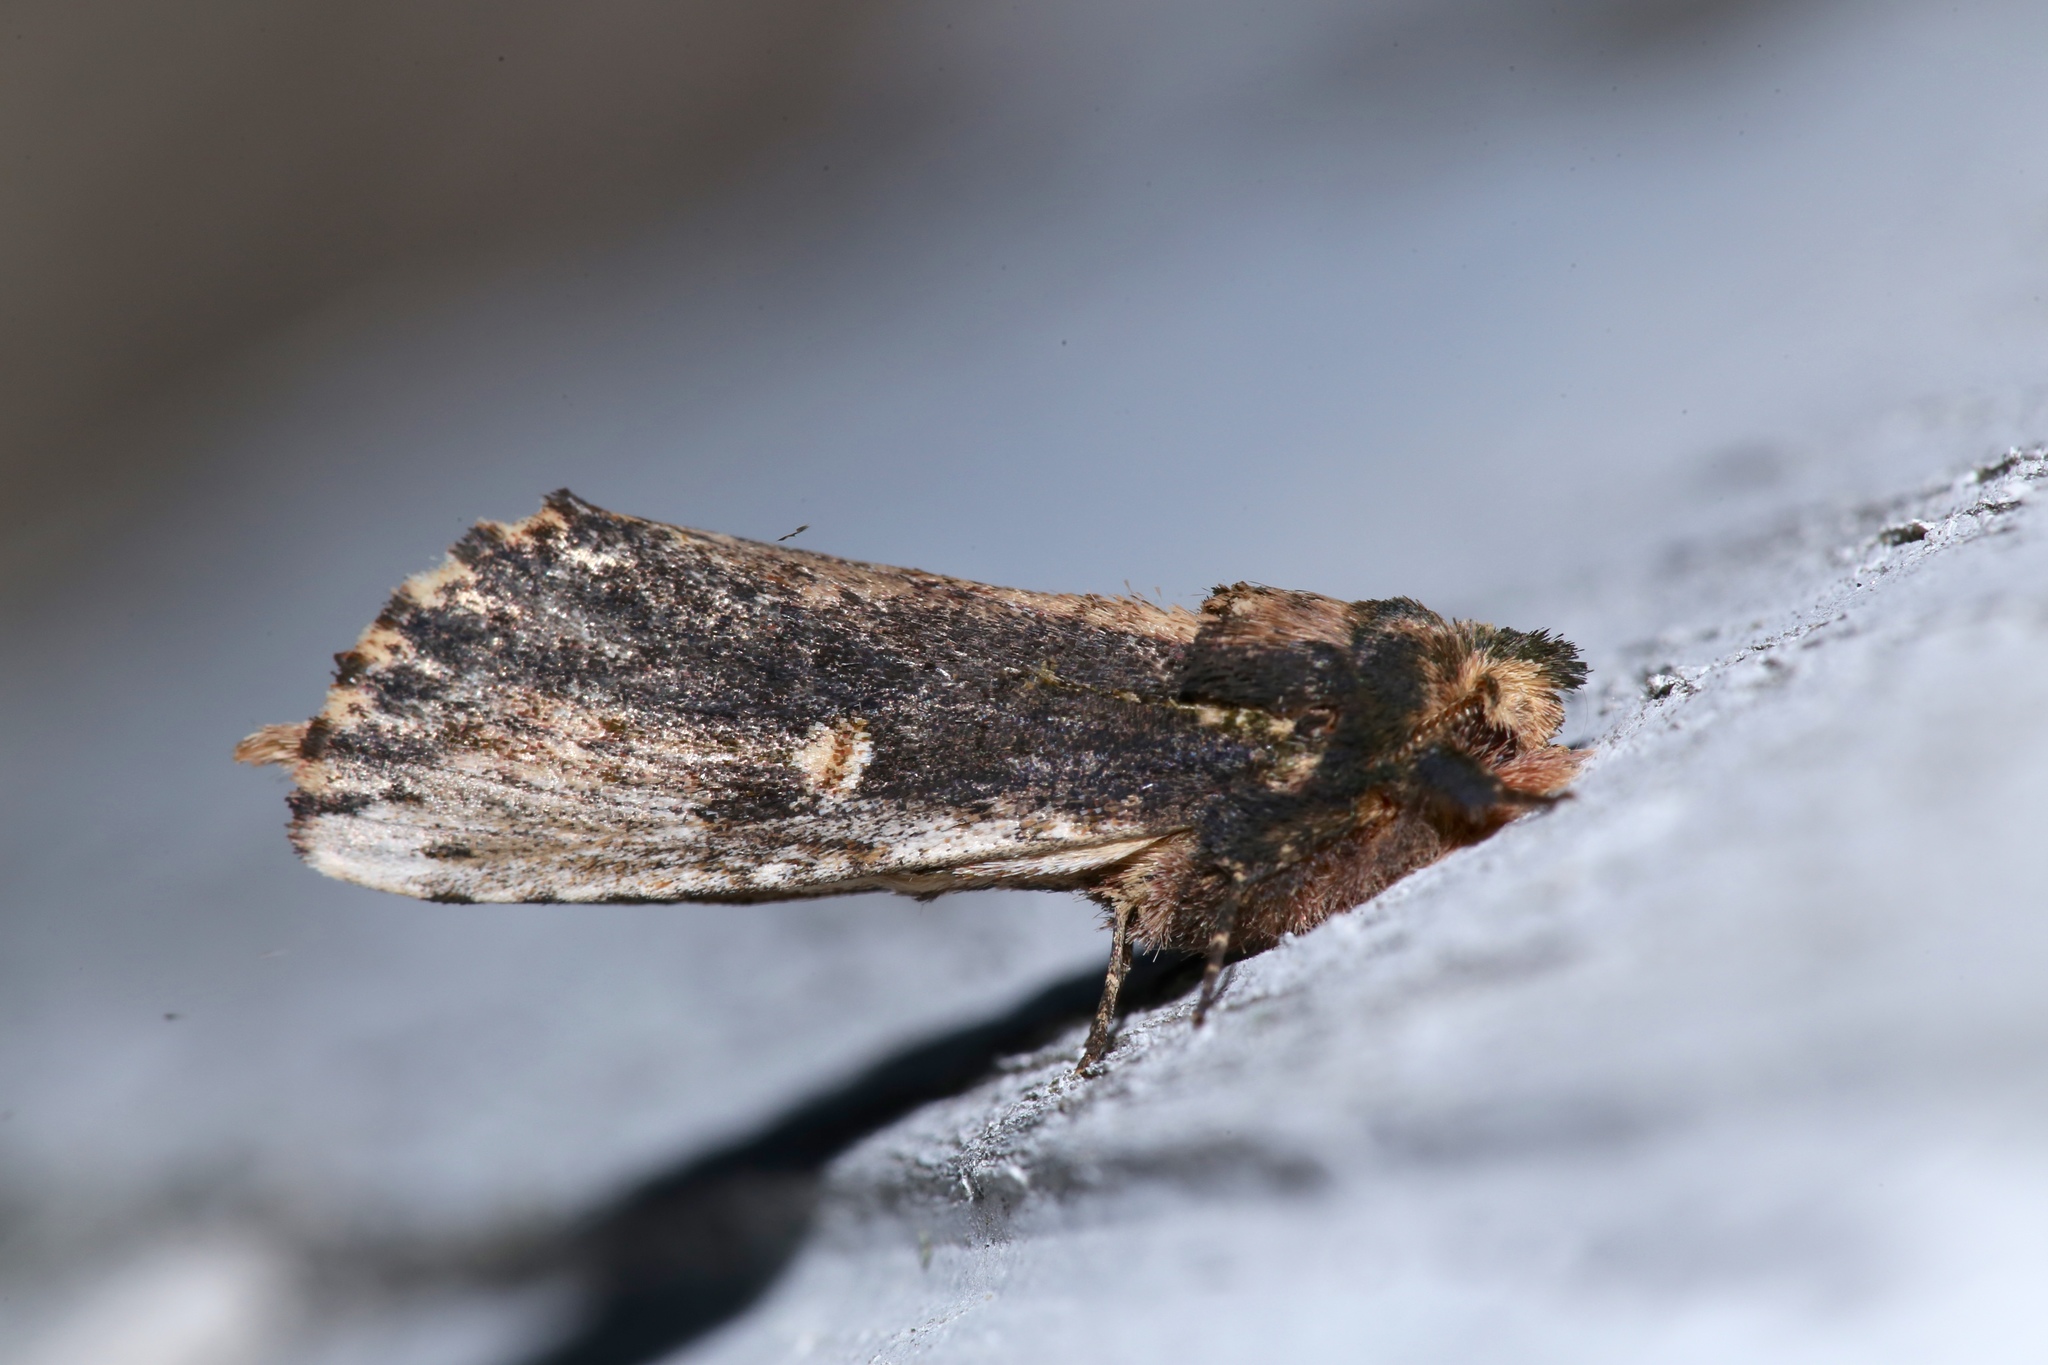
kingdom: Animalia
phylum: Arthropoda
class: Insecta
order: Lepidoptera
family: Notodontidae
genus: Schizura
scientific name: Schizura ipomaeae
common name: Morning-glory prominent
